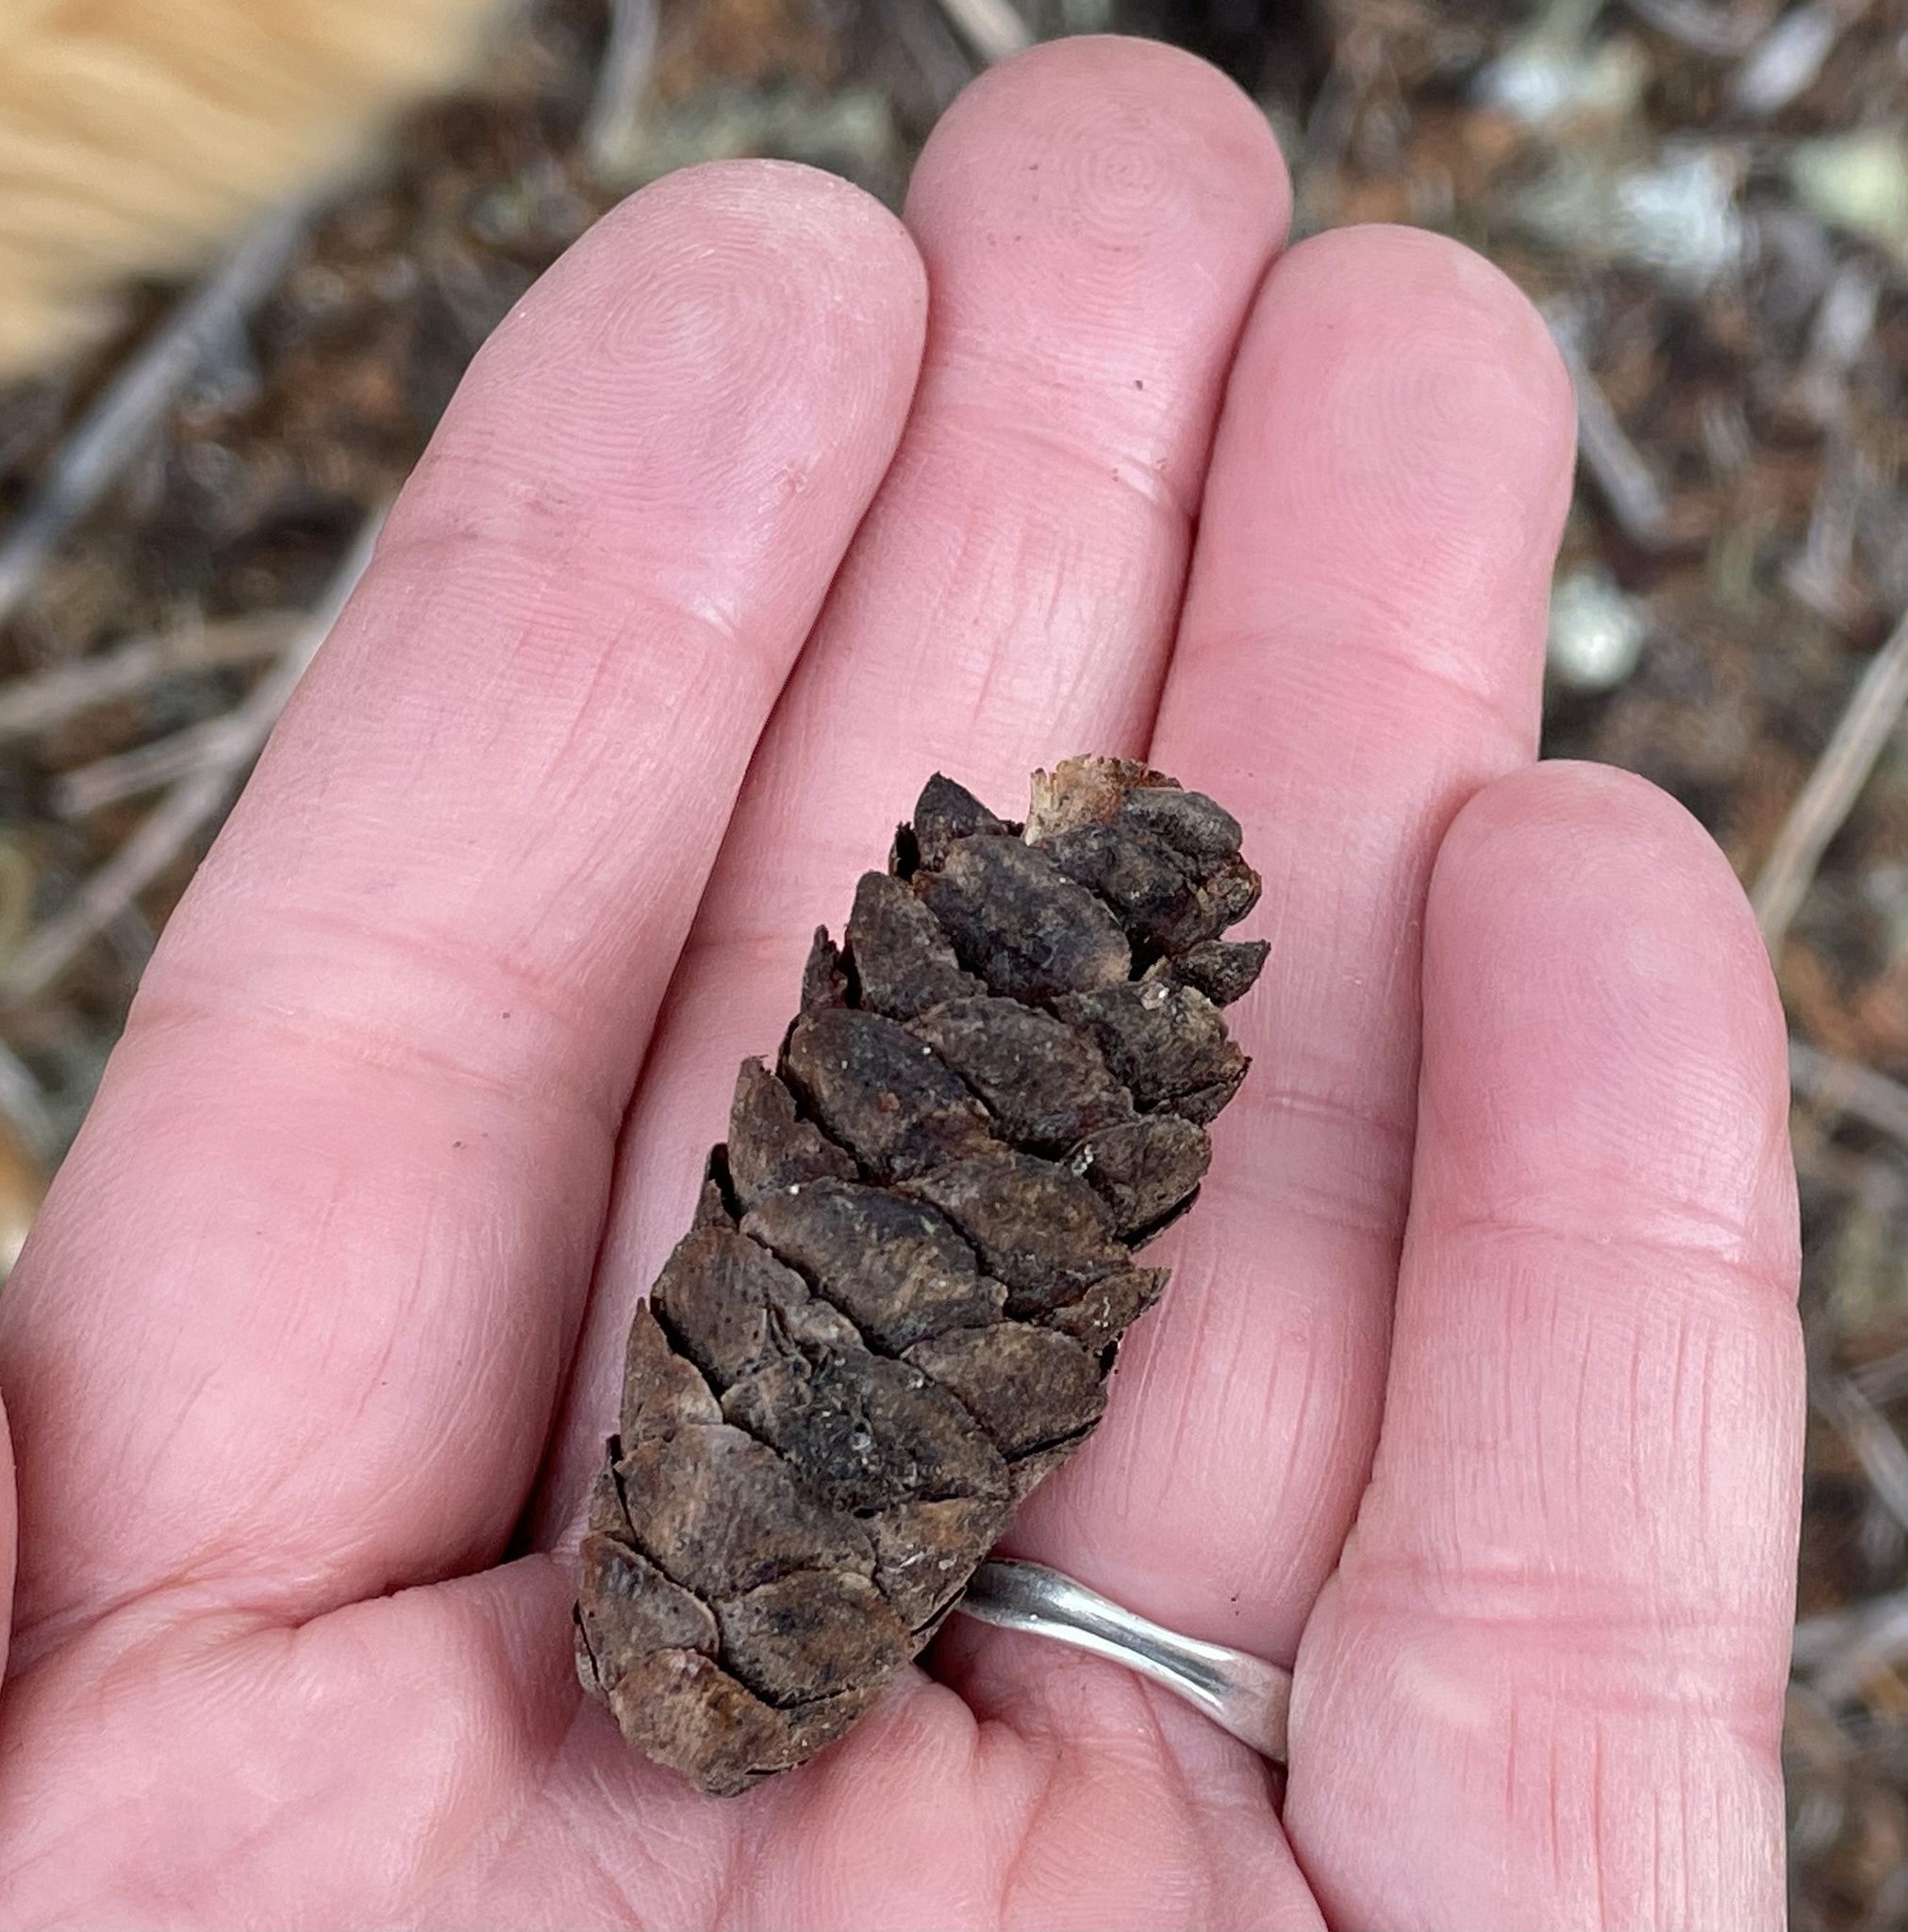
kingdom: Plantae
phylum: Tracheophyta
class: Pinopsida
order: Pinales
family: Pinaceae
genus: Tsuga
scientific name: Tsuga mertensiana
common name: Mountain hemlock
